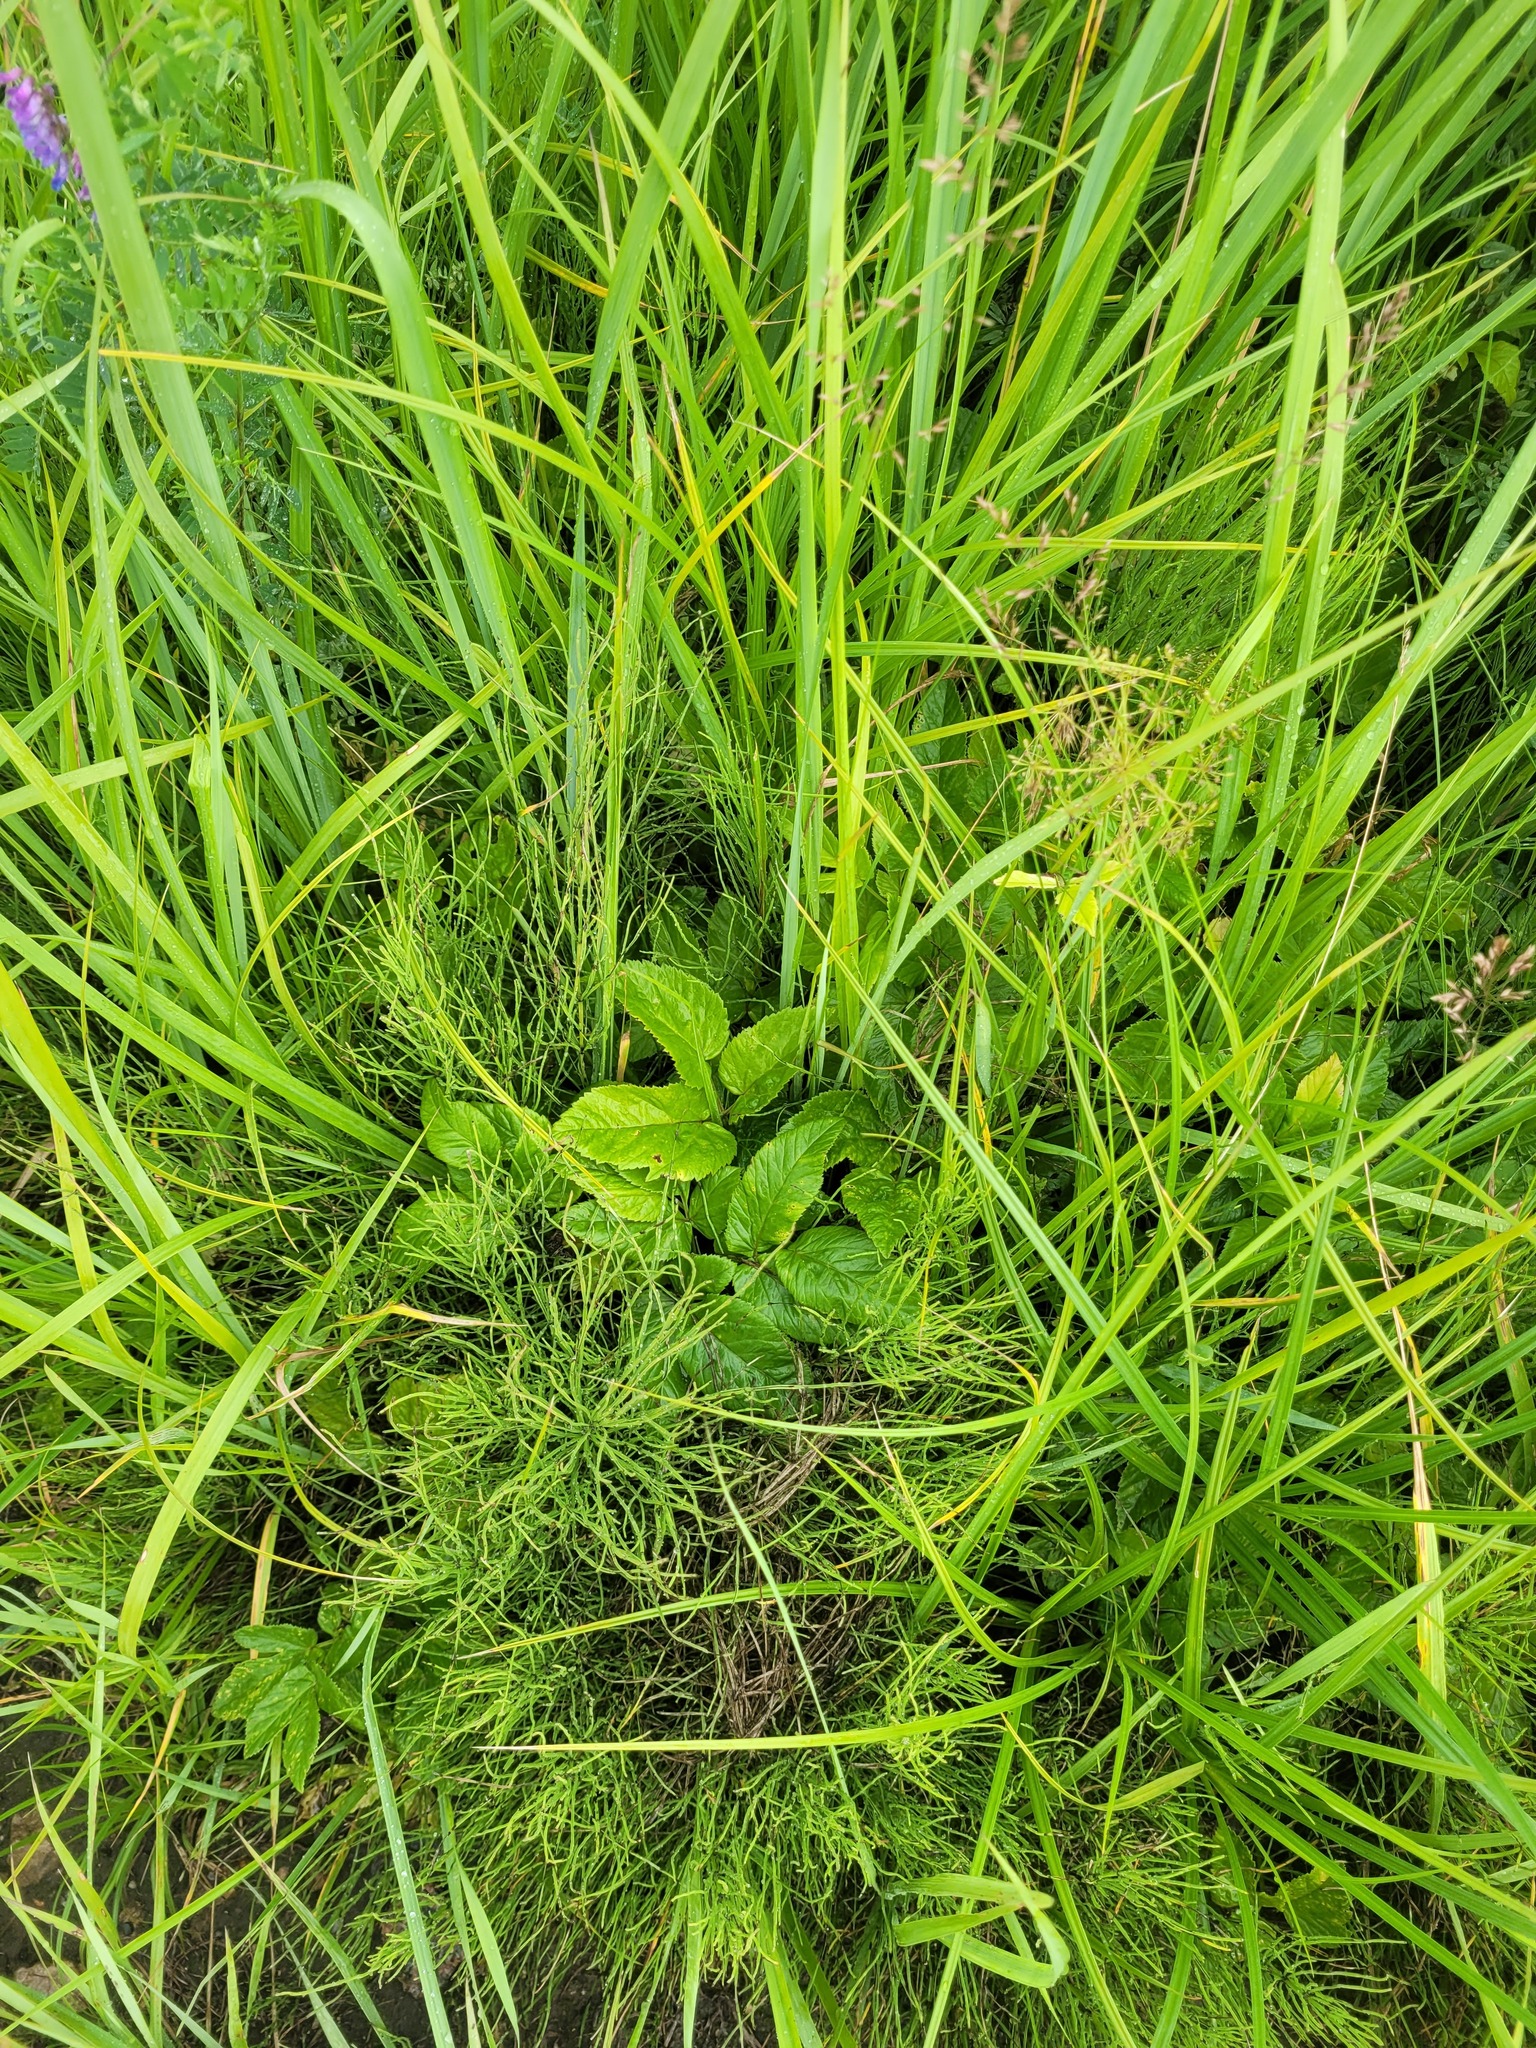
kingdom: Plantae
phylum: Tracheophyta
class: Magnoliopsida
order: Apiales
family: Apiaceae
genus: Aegopodium
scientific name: Aegopodium podagraria
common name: Ground-elder
